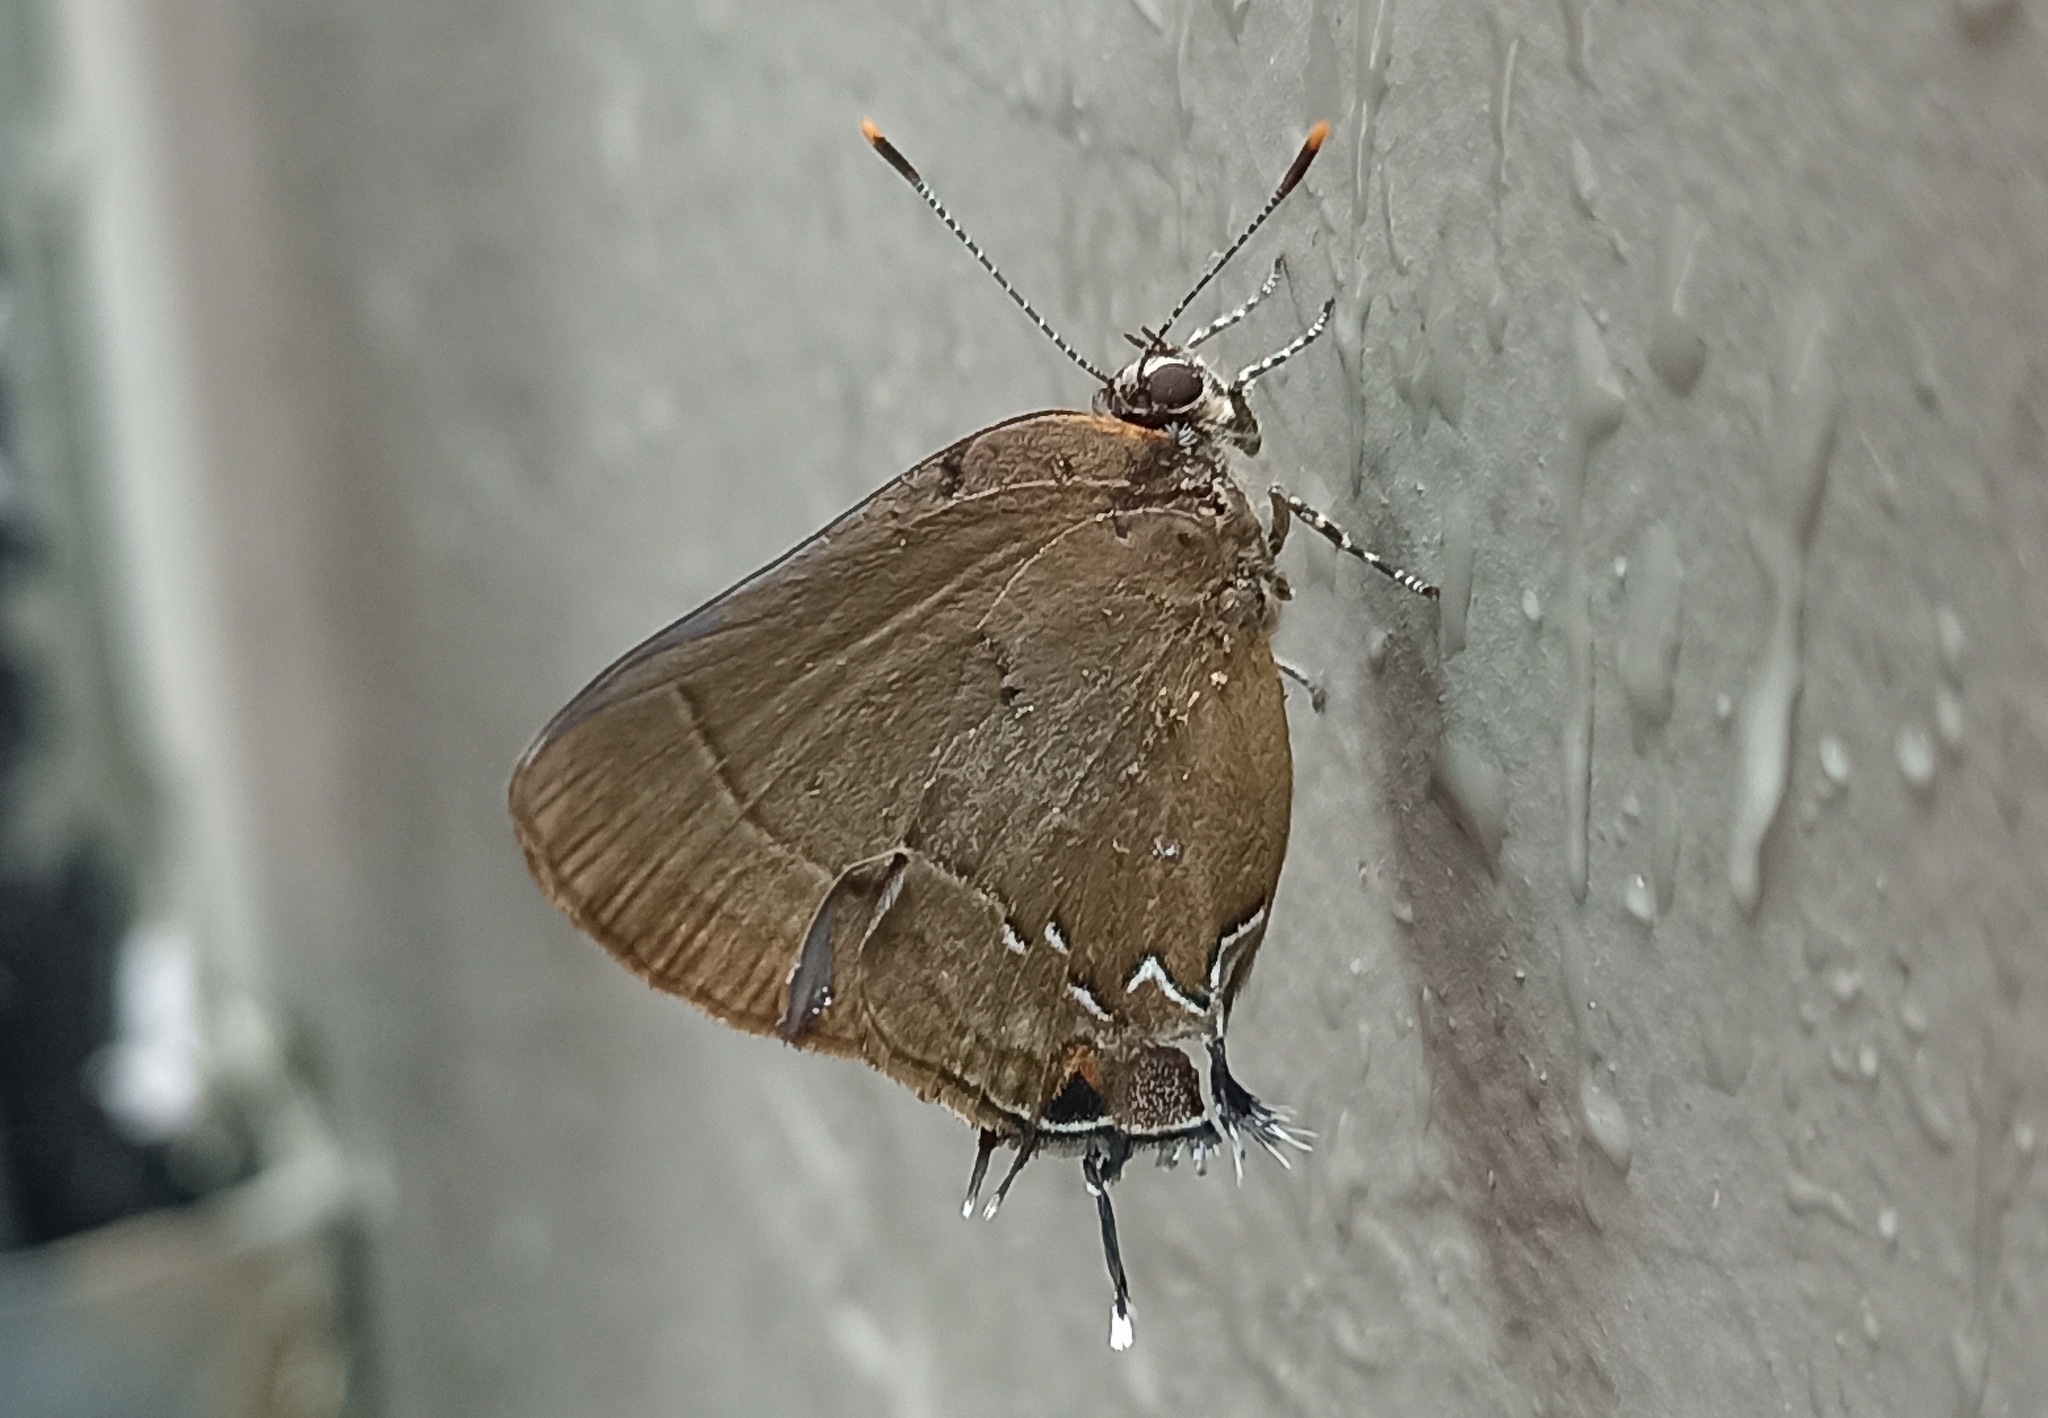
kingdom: Animalia
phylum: Arthropoda
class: Insecta
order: Lepidoptera
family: Lycaenidae
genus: Ziegleria
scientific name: Ziegleria hesperitis
